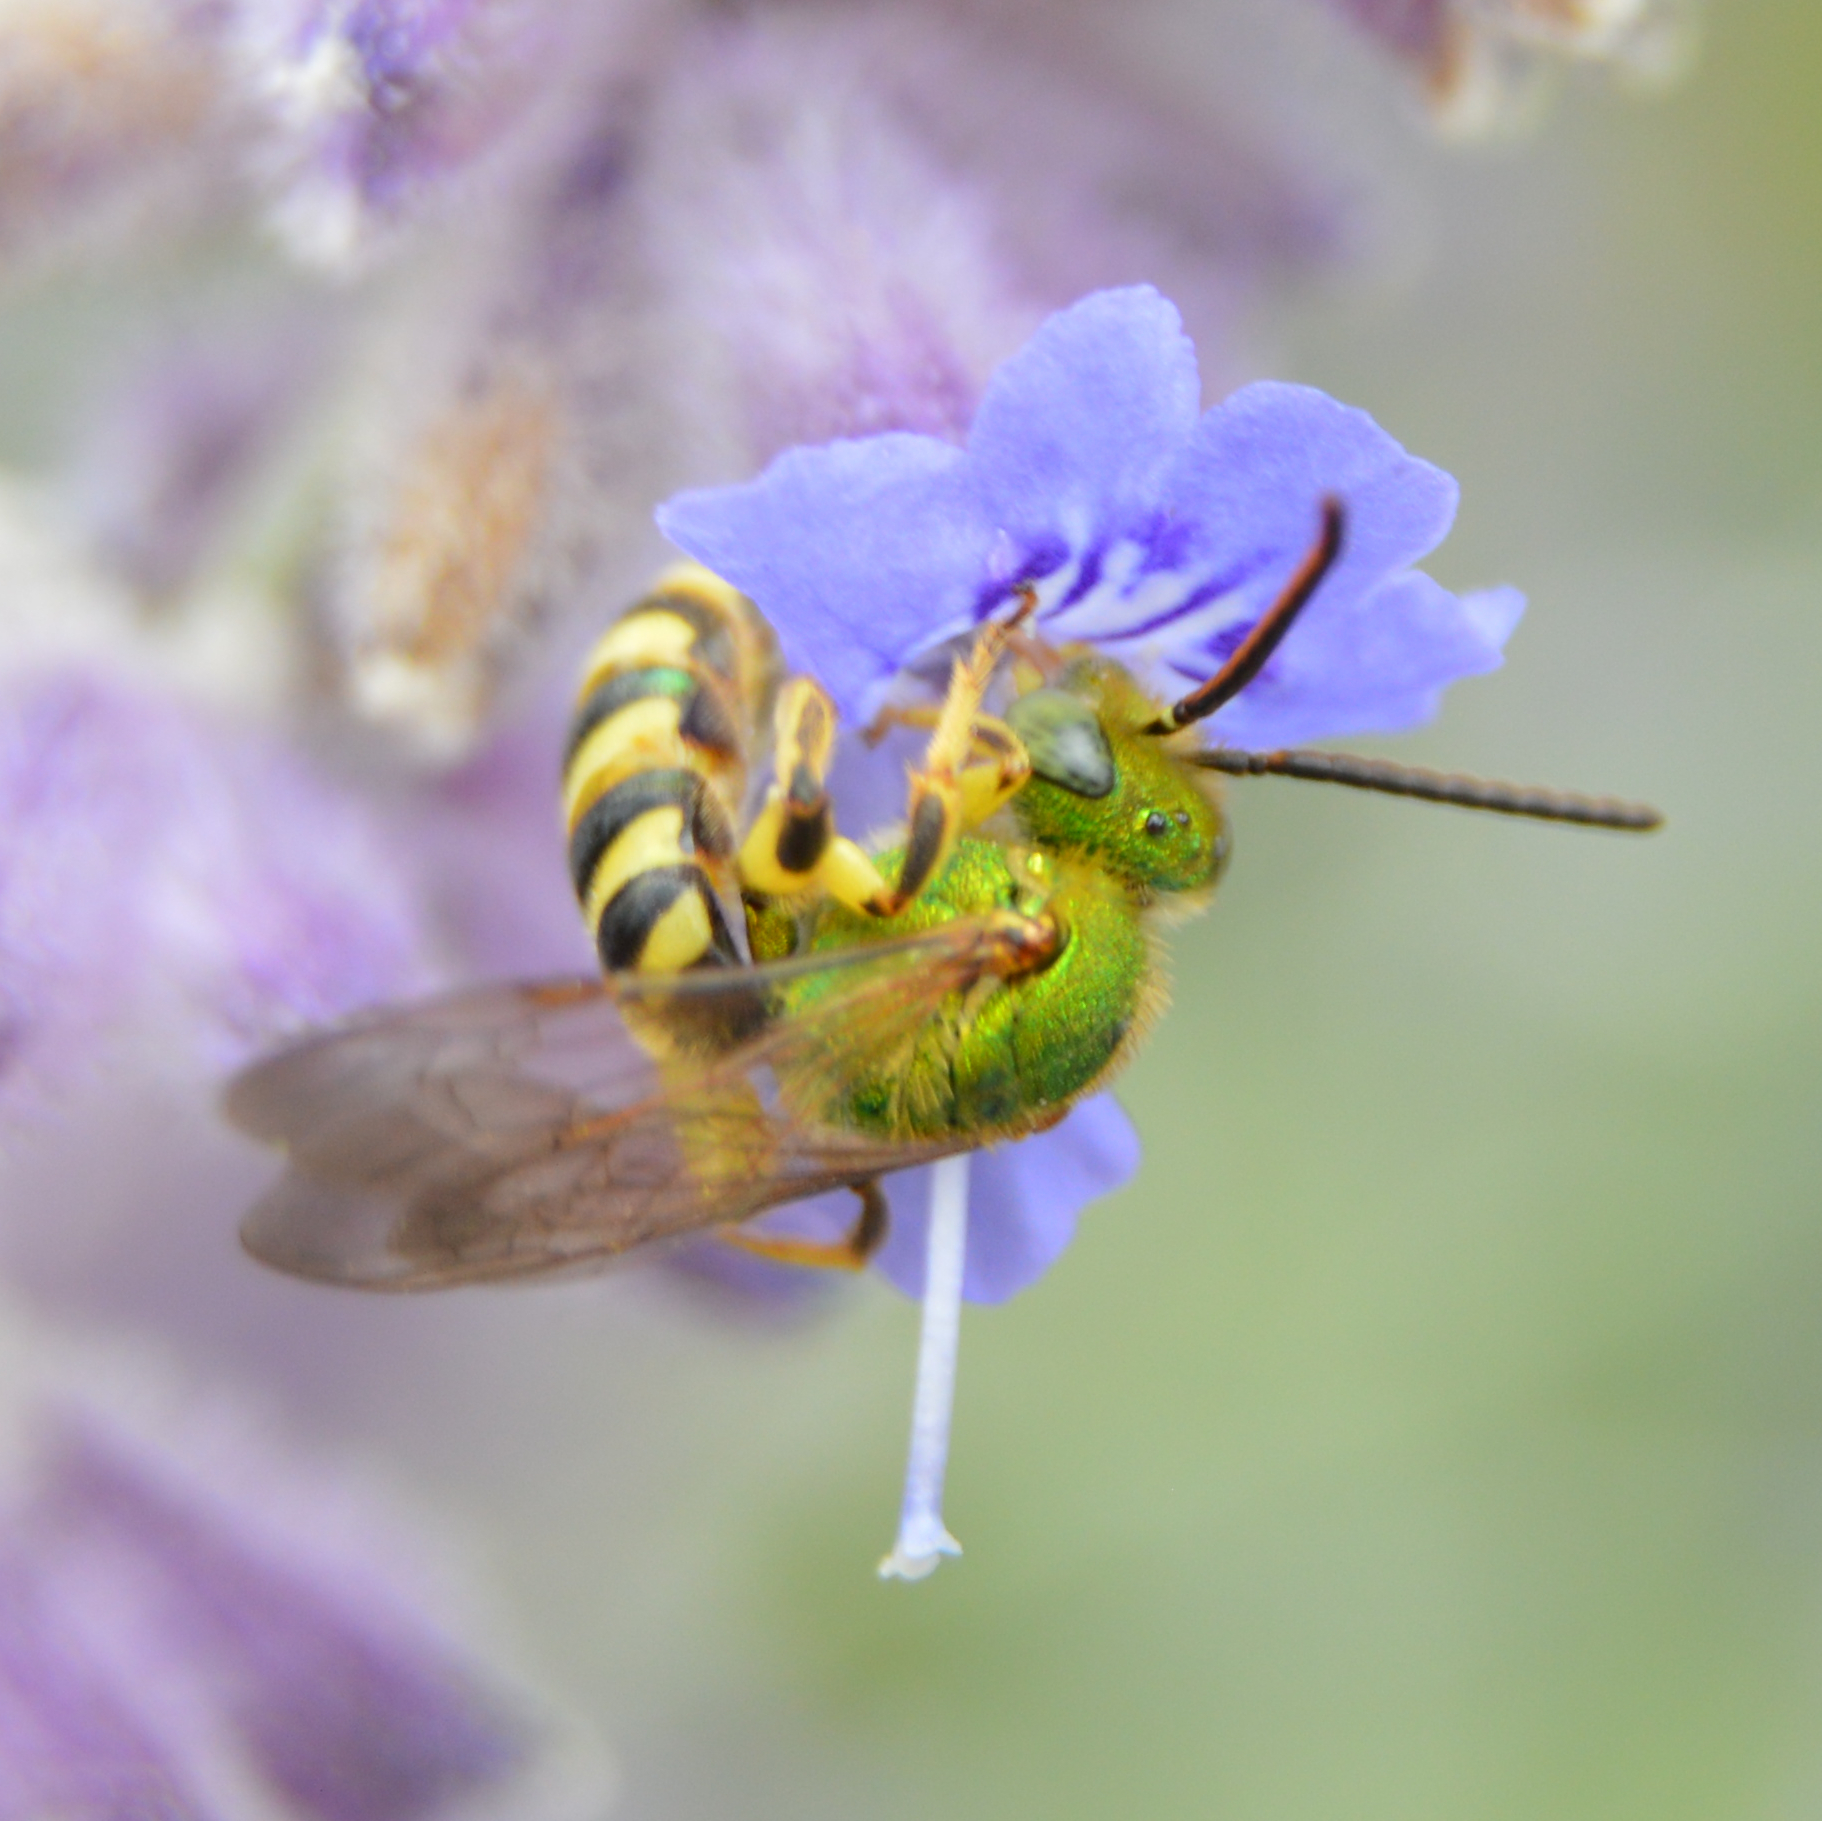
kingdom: Animalia
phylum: Arthropoda
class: Insecta
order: Hymenoptera
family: Halictidae
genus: Agapostemon
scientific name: Agapostemon
